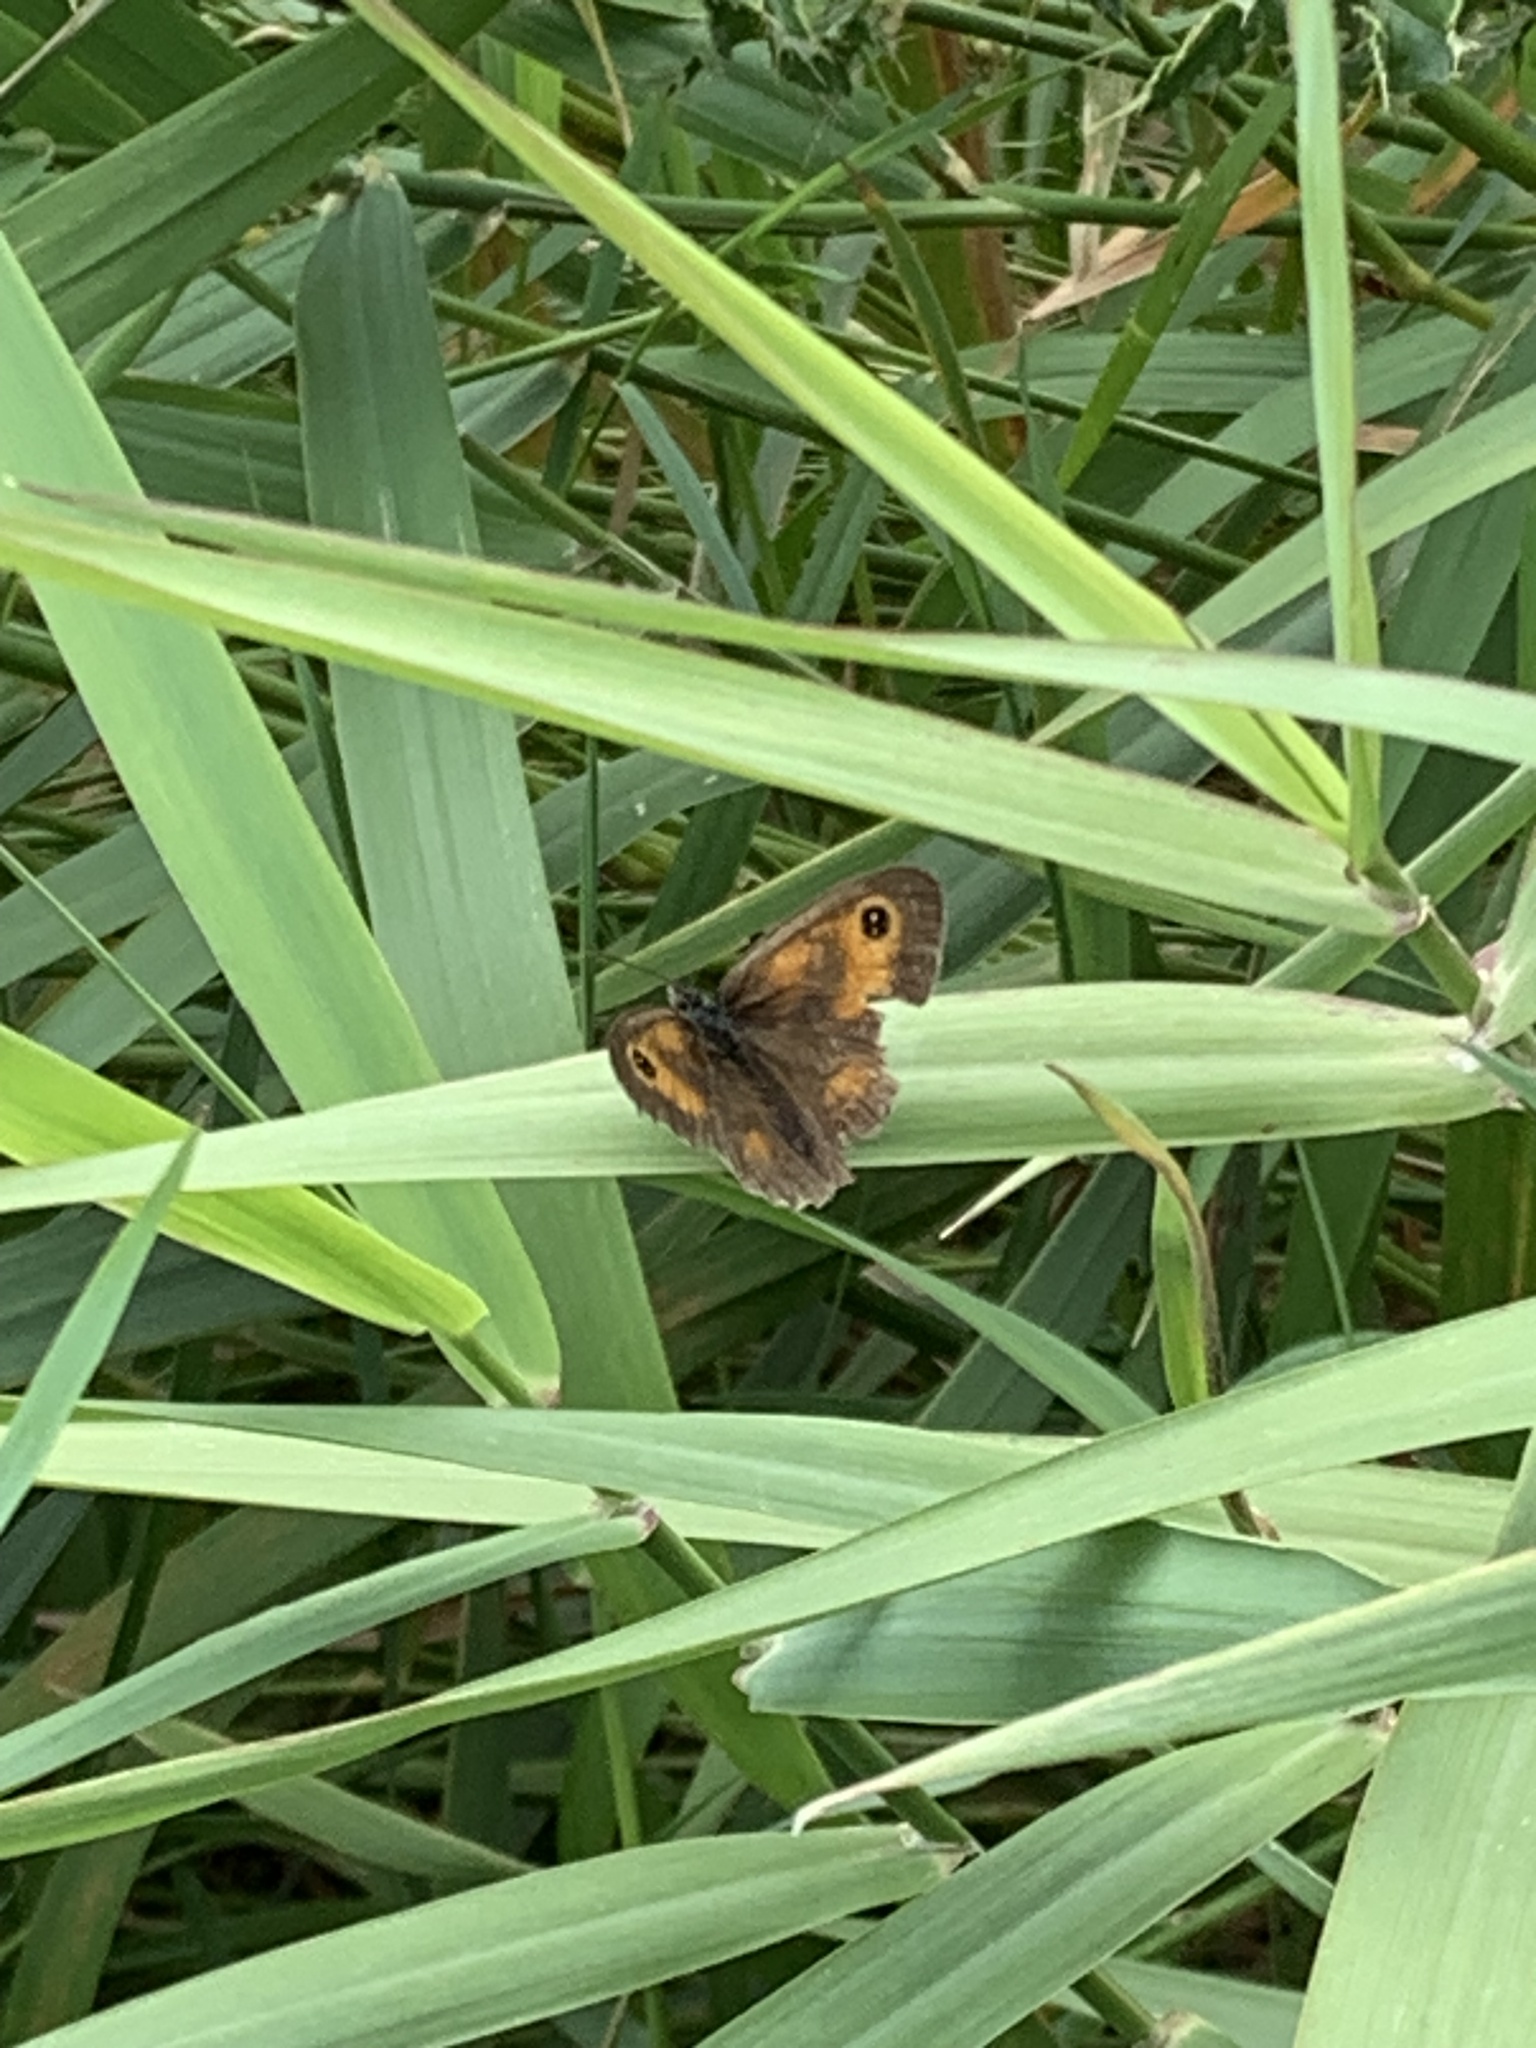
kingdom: Animalia
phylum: Arthropoda
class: Insecta
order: Lepidoptera
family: Nymphalidae
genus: Pyronia
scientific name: Pyronia tithonus
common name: Gatekeeper
